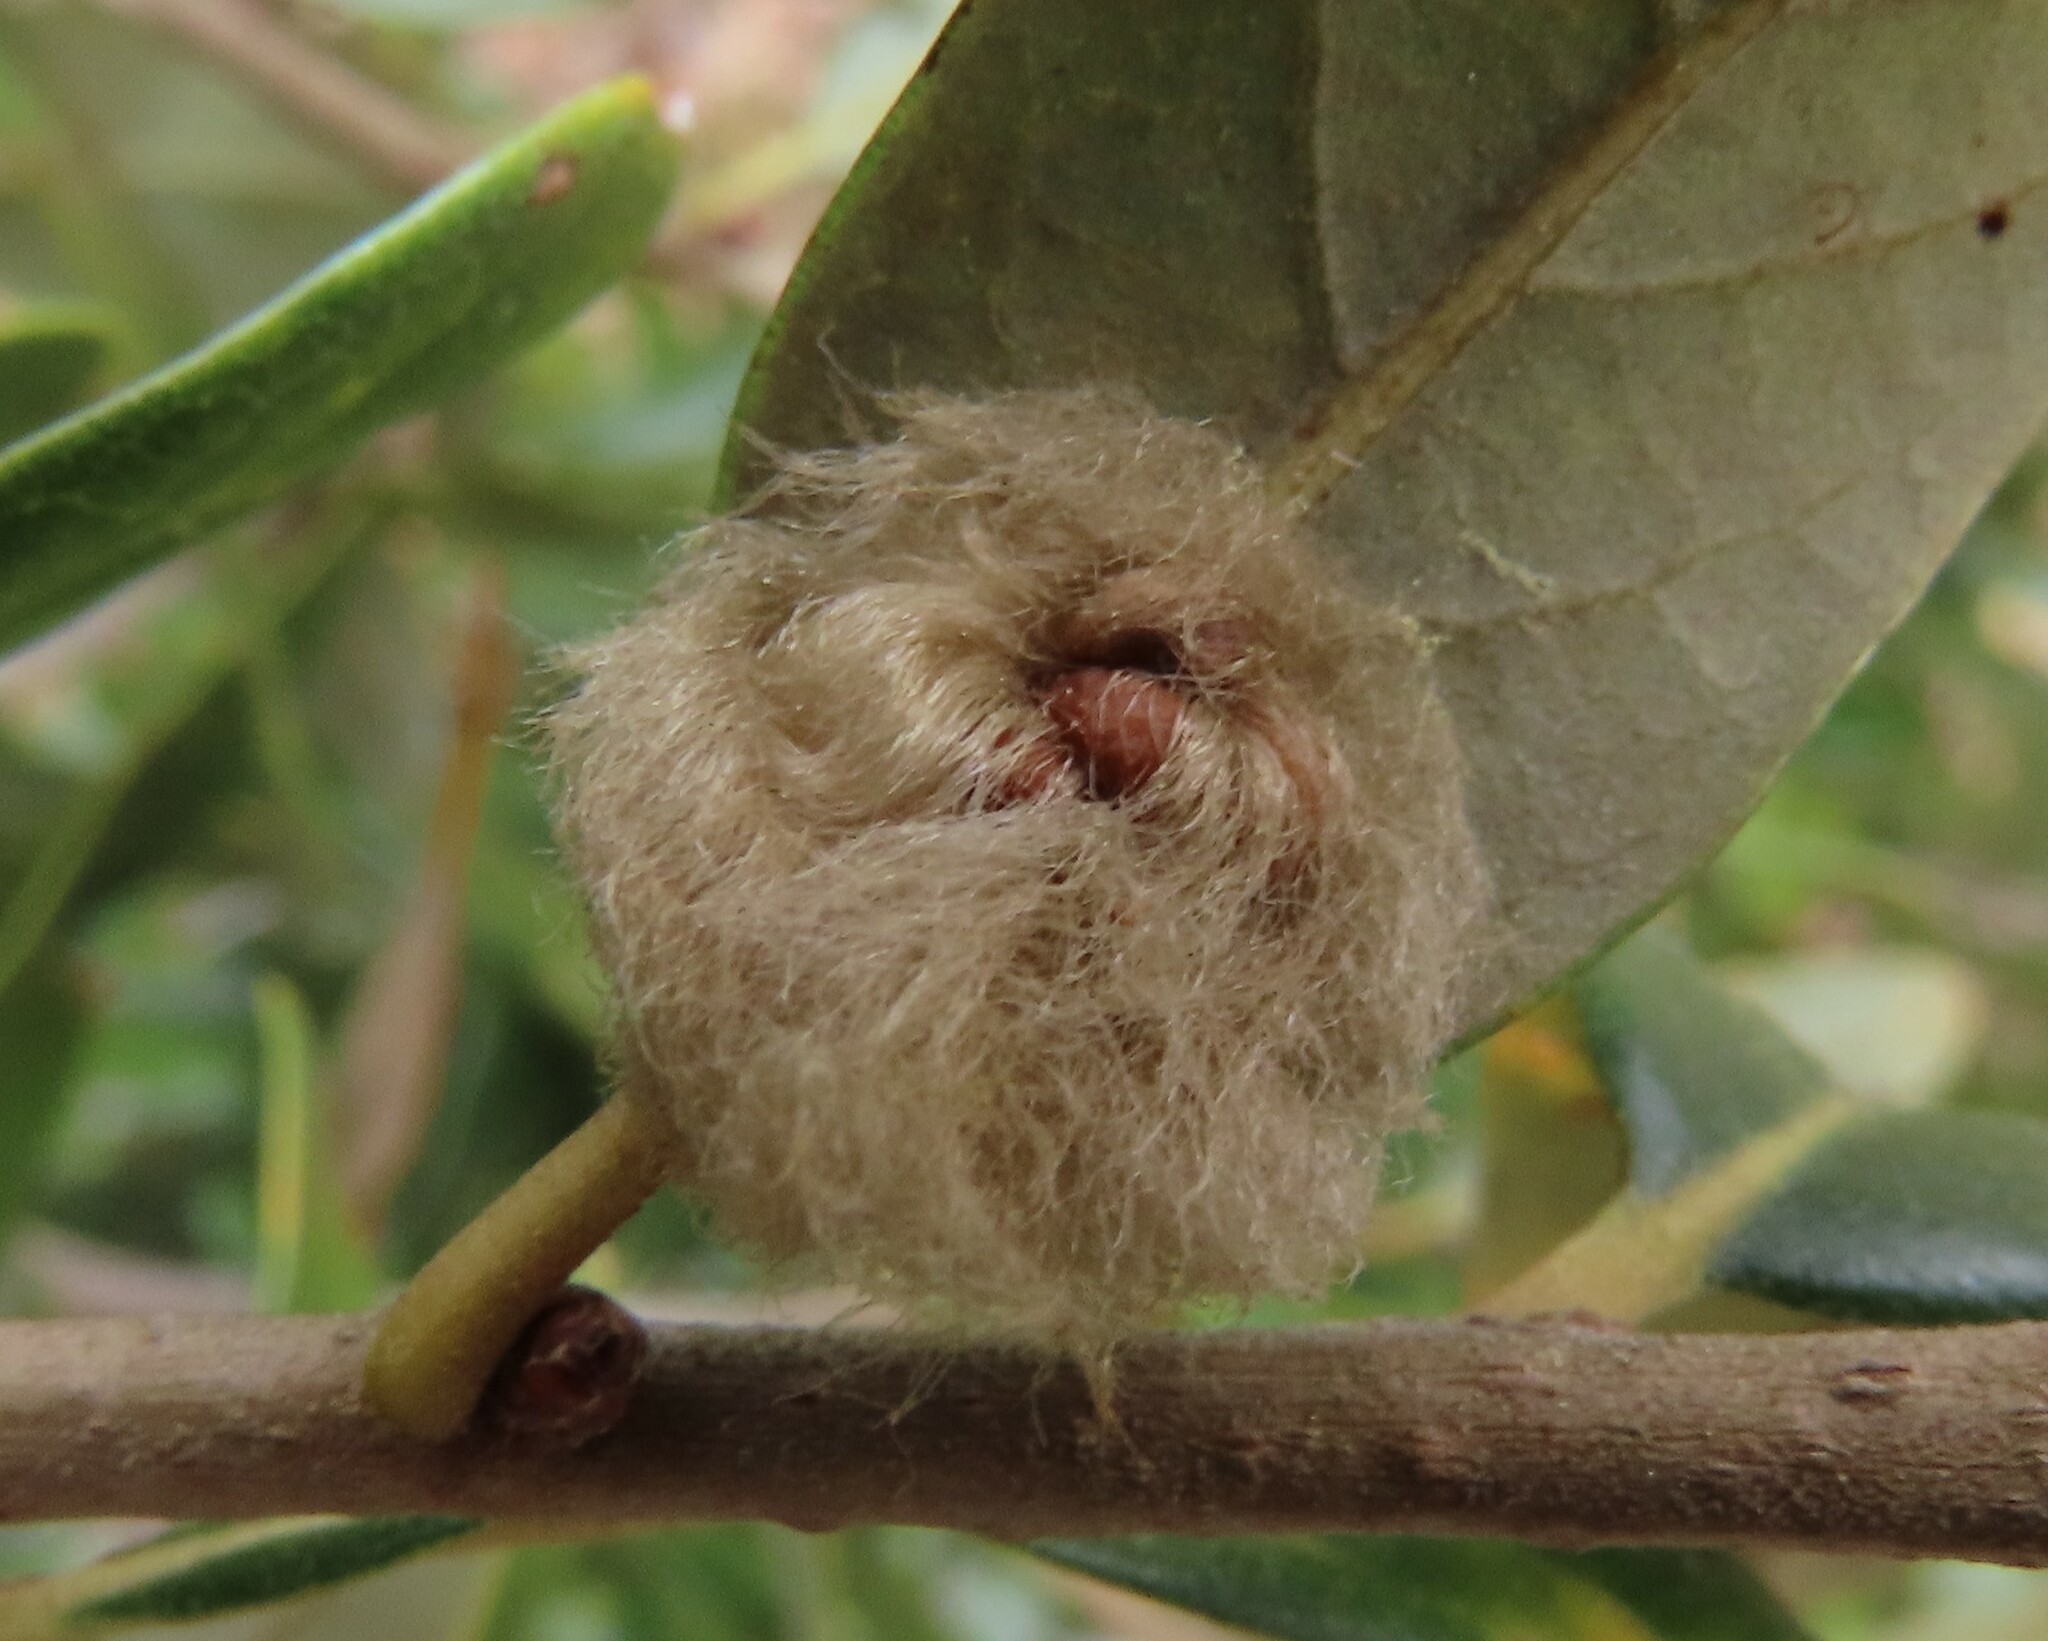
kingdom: Animalia
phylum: Arthropoda
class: Insecta
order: Hymenoptera
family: Cynipidae
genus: Andricus
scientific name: Andricus Druon quercuslanigerum
